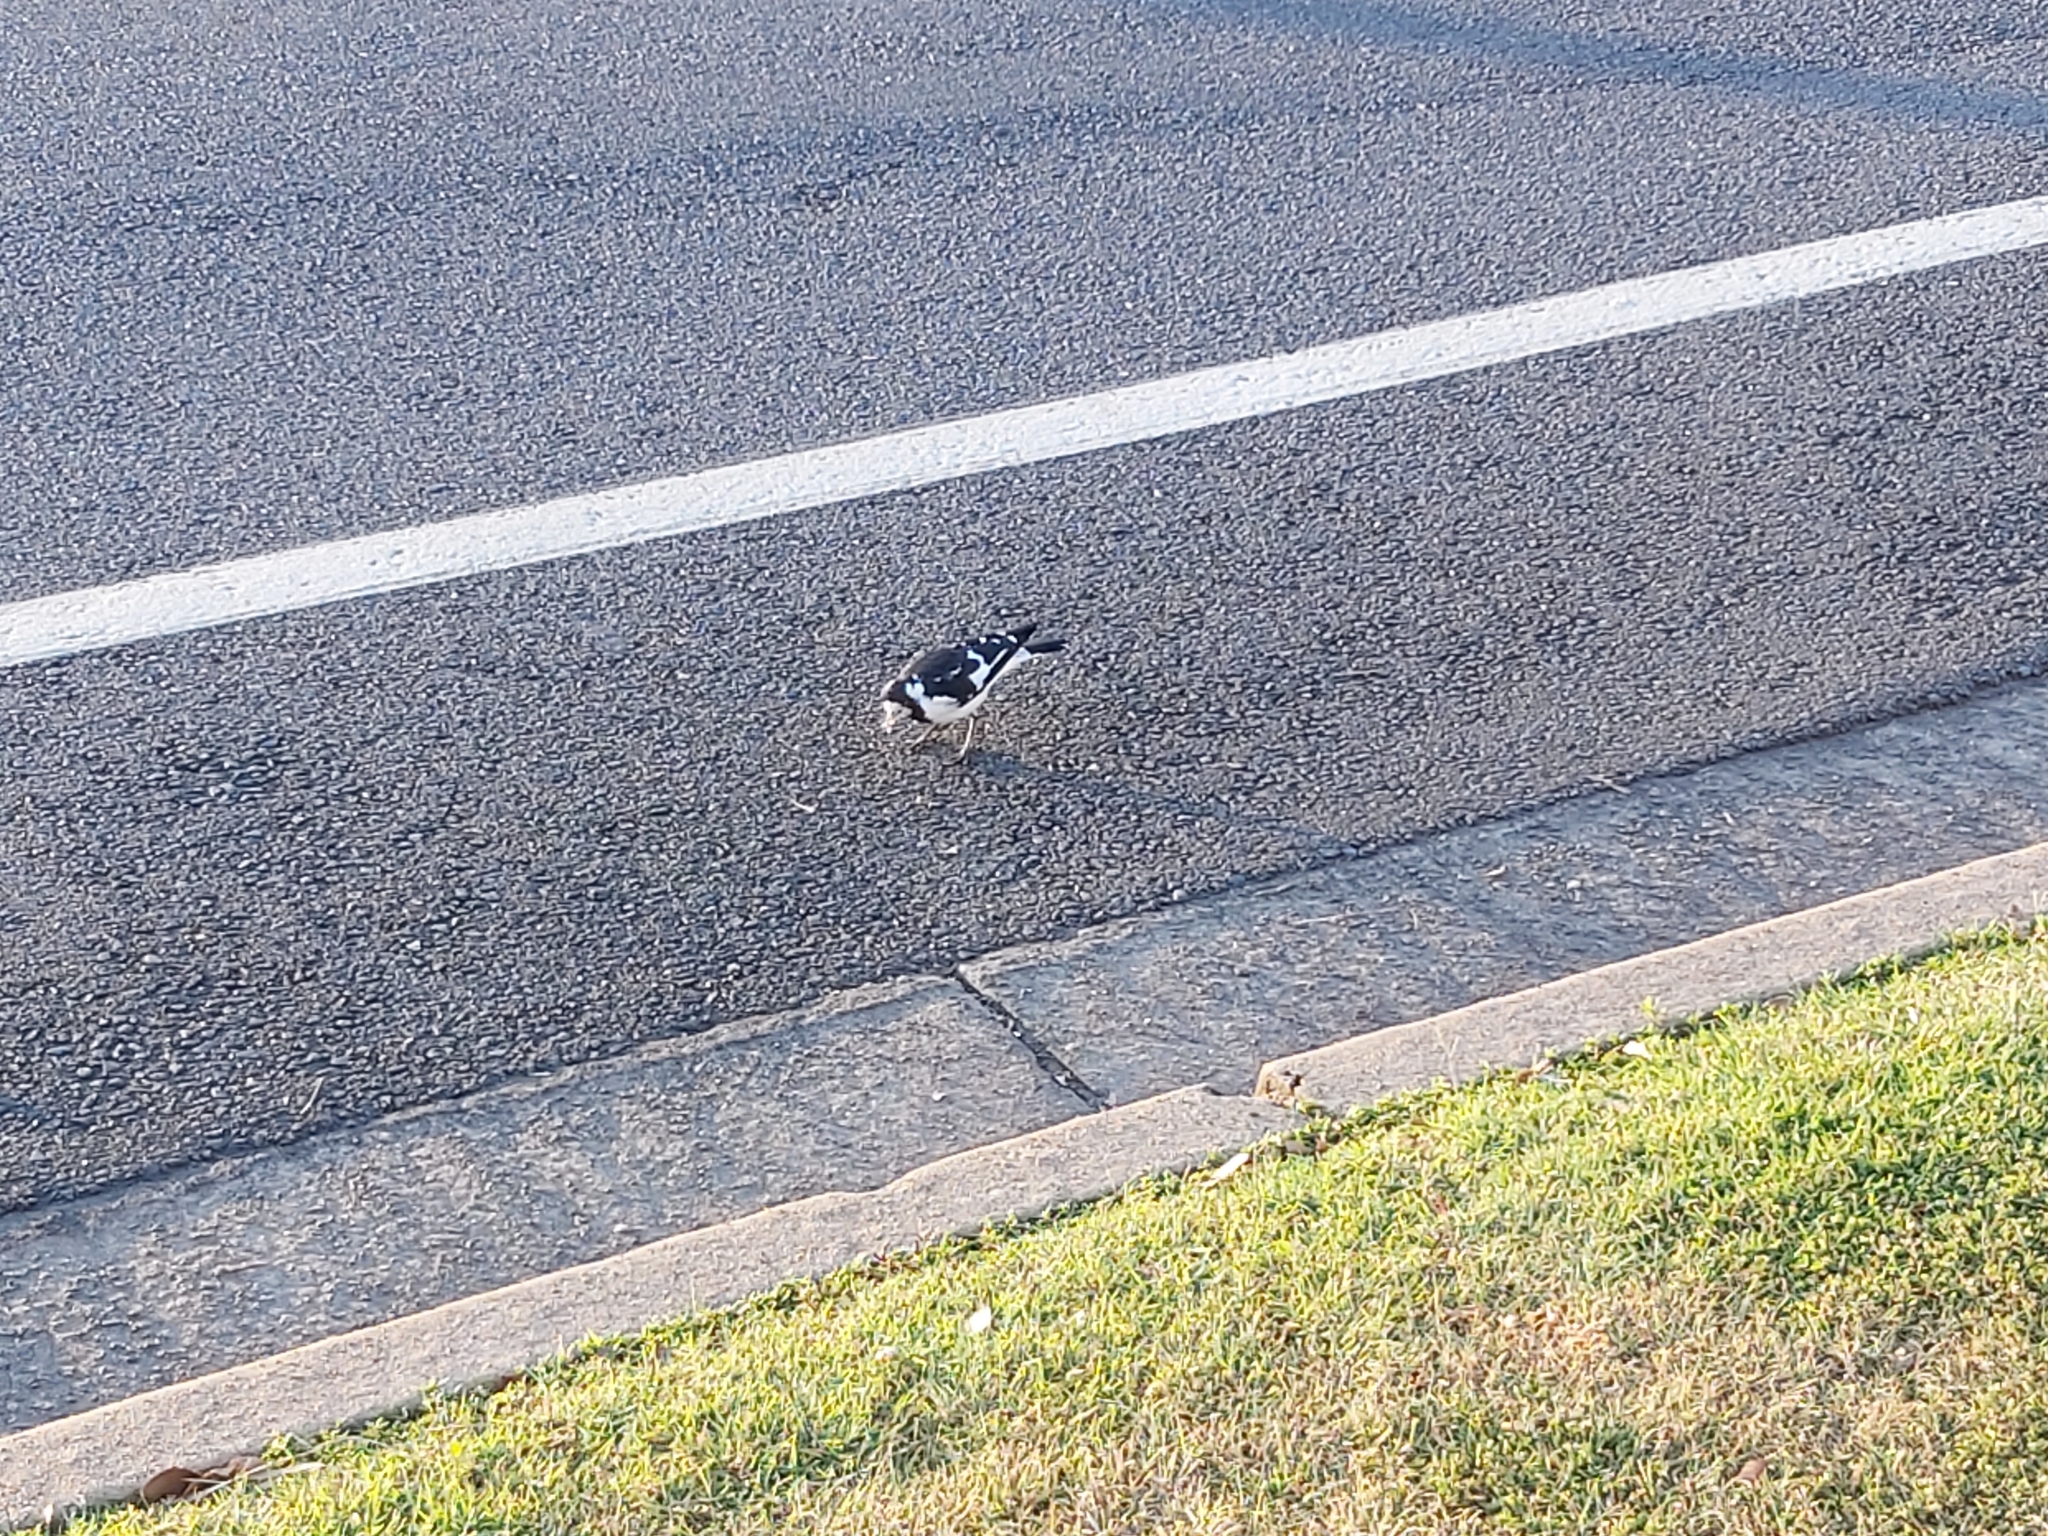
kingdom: Animalia
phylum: Chordata
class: Aves
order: Passeriformes
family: Monarchidae
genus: Grallina
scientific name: Grallina cyanoleuca
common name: Magpie-lark
